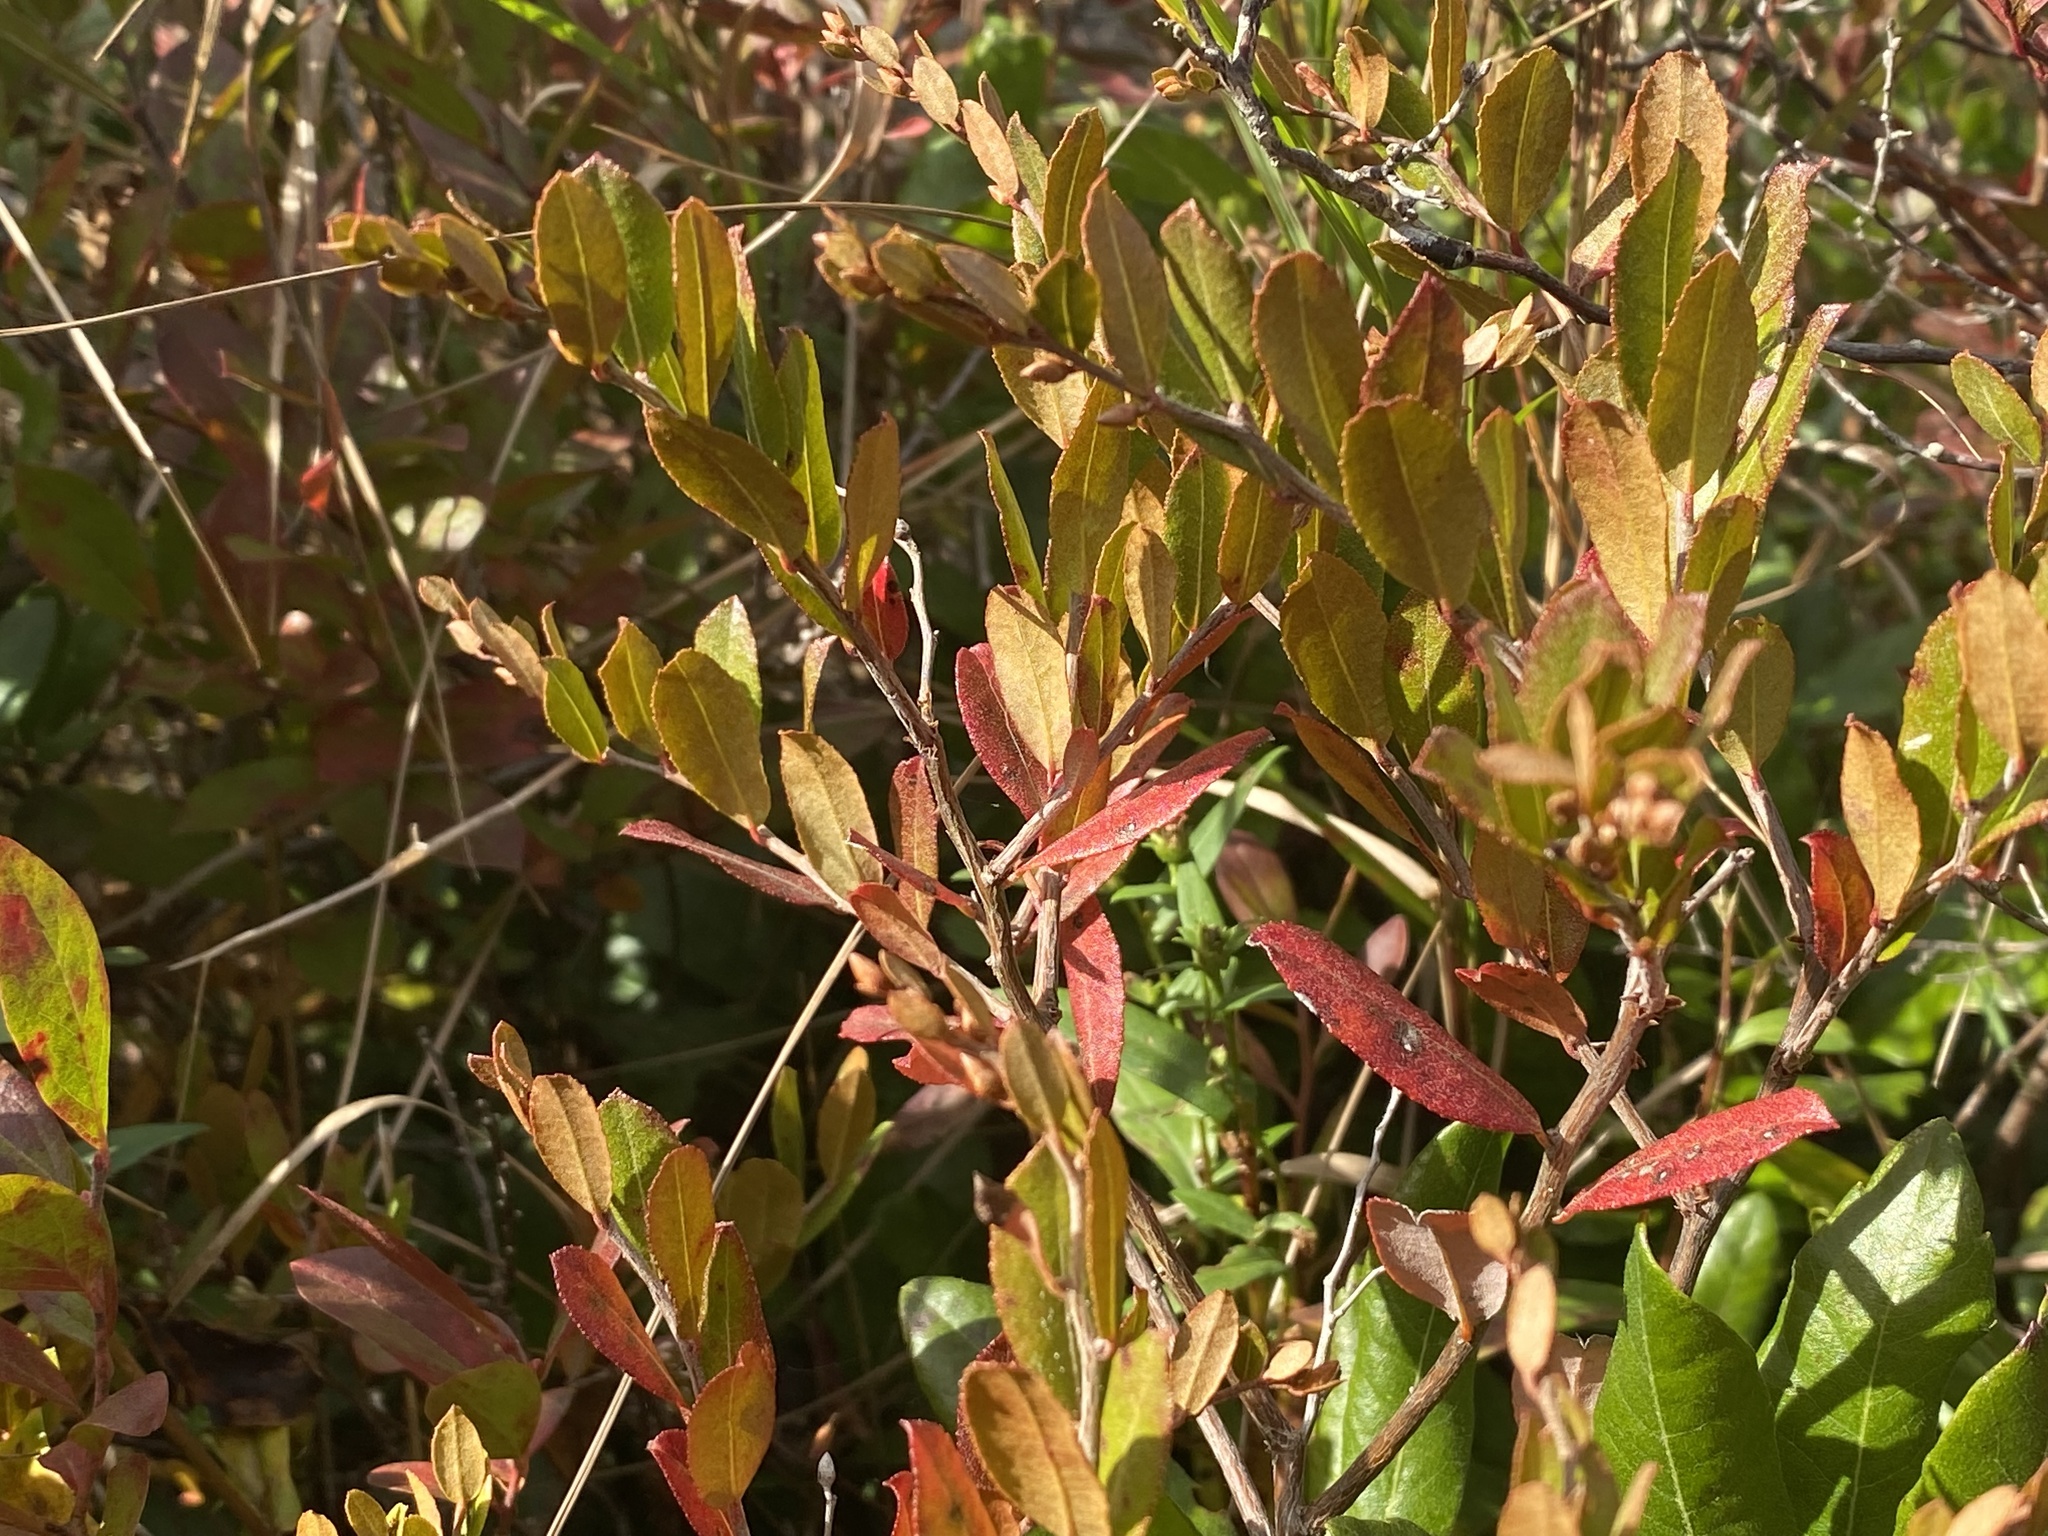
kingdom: Plantae
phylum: Tracheophyta
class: Magnoliopsida
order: Ericales
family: Ericaceae
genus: Chamaedaphne
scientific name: Chamaedaphne calyculata
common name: Leatherleaf
